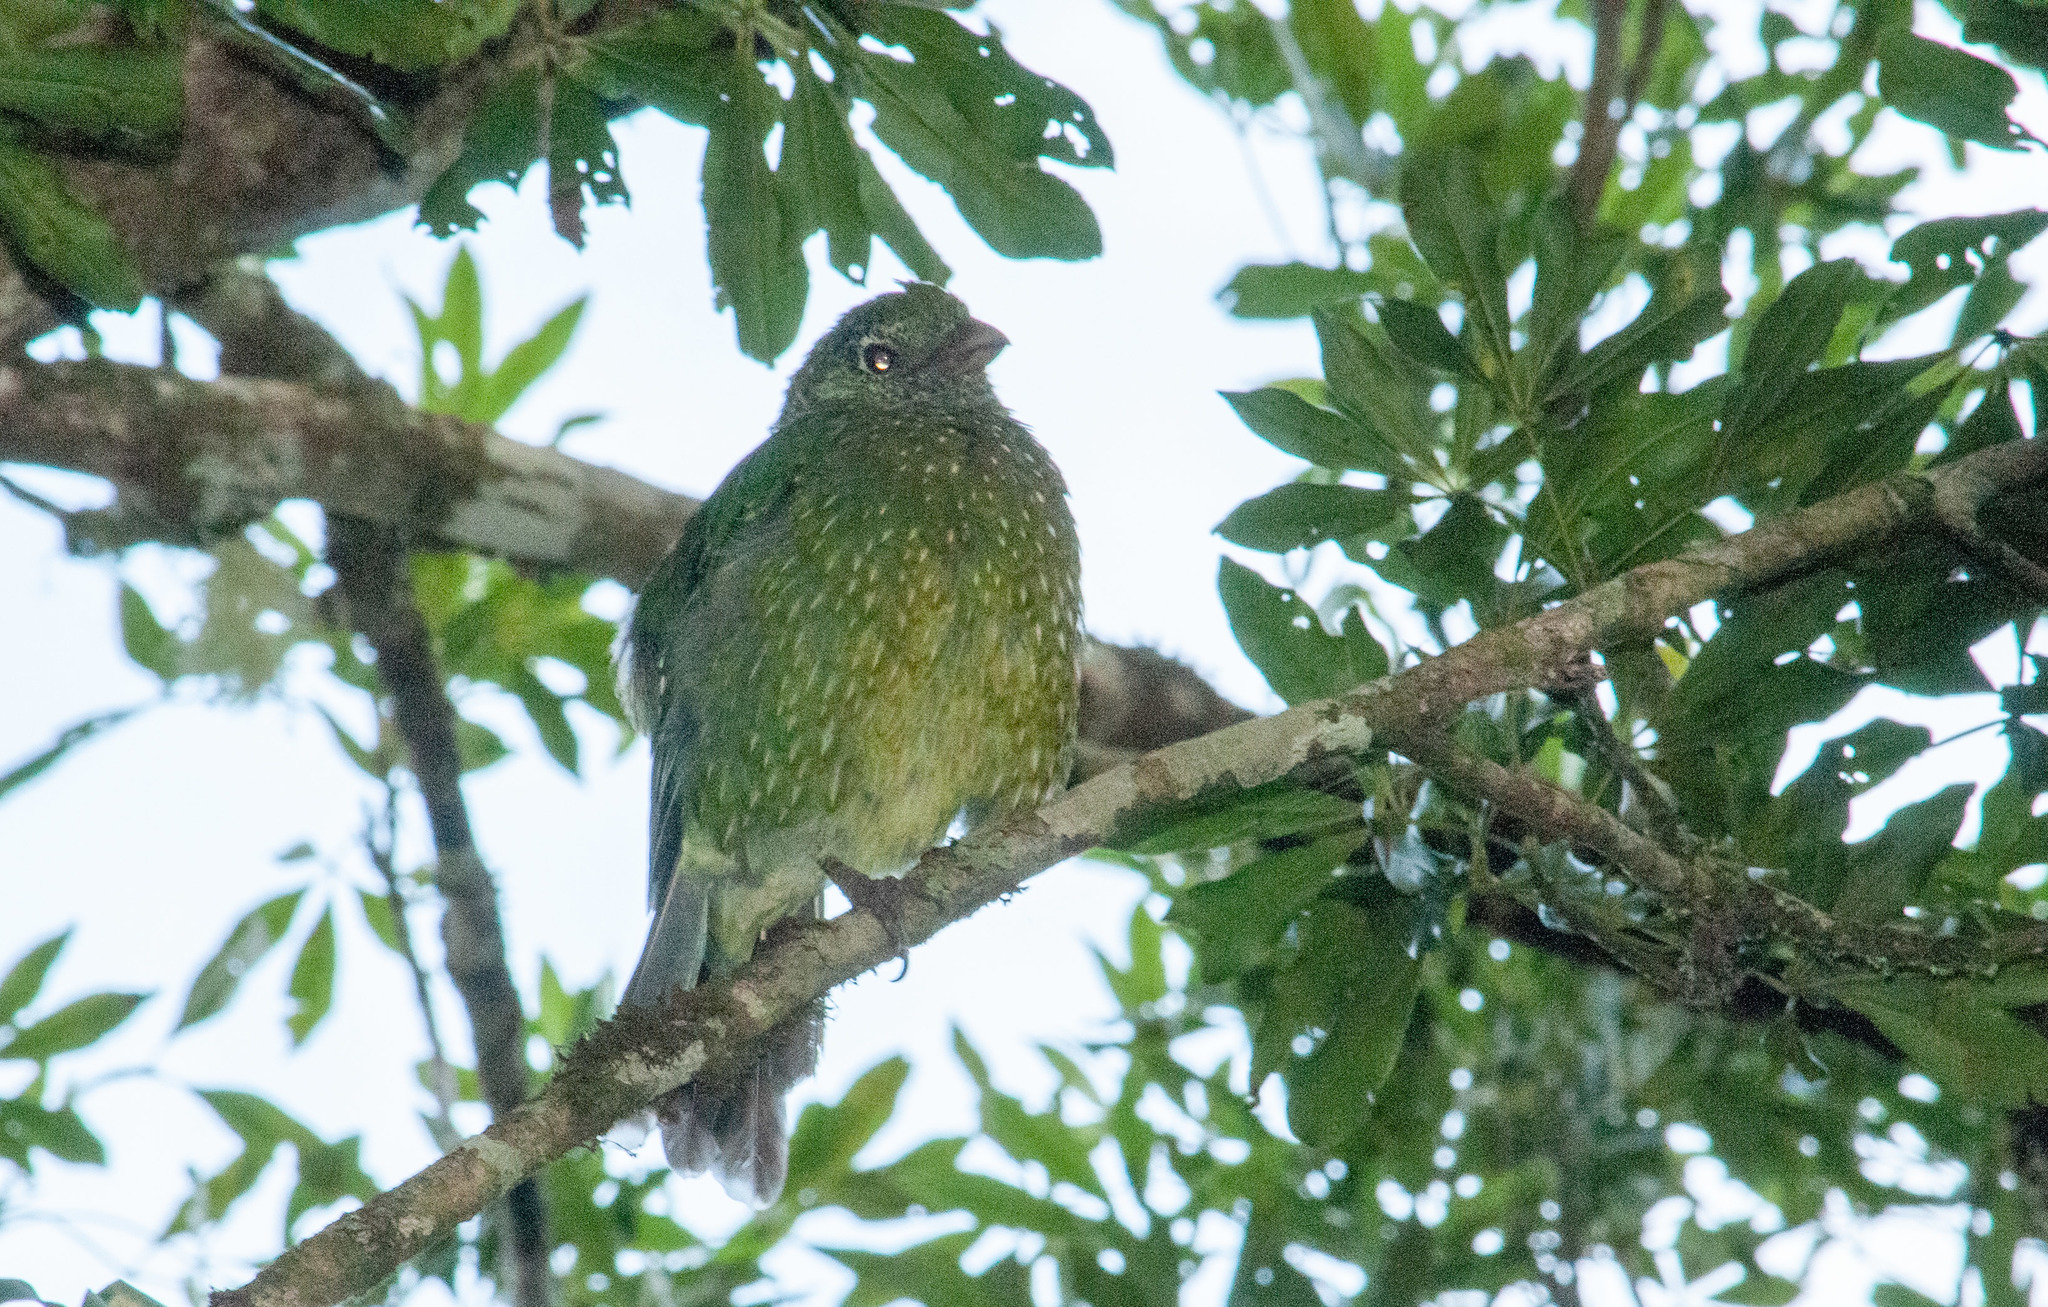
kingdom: Animalia
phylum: Chordata
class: Aves
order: Passeriformes
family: Ptilonorhynchidae
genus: Ailuroedus
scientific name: Ailuroedus crassirostris
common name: Green catbird
